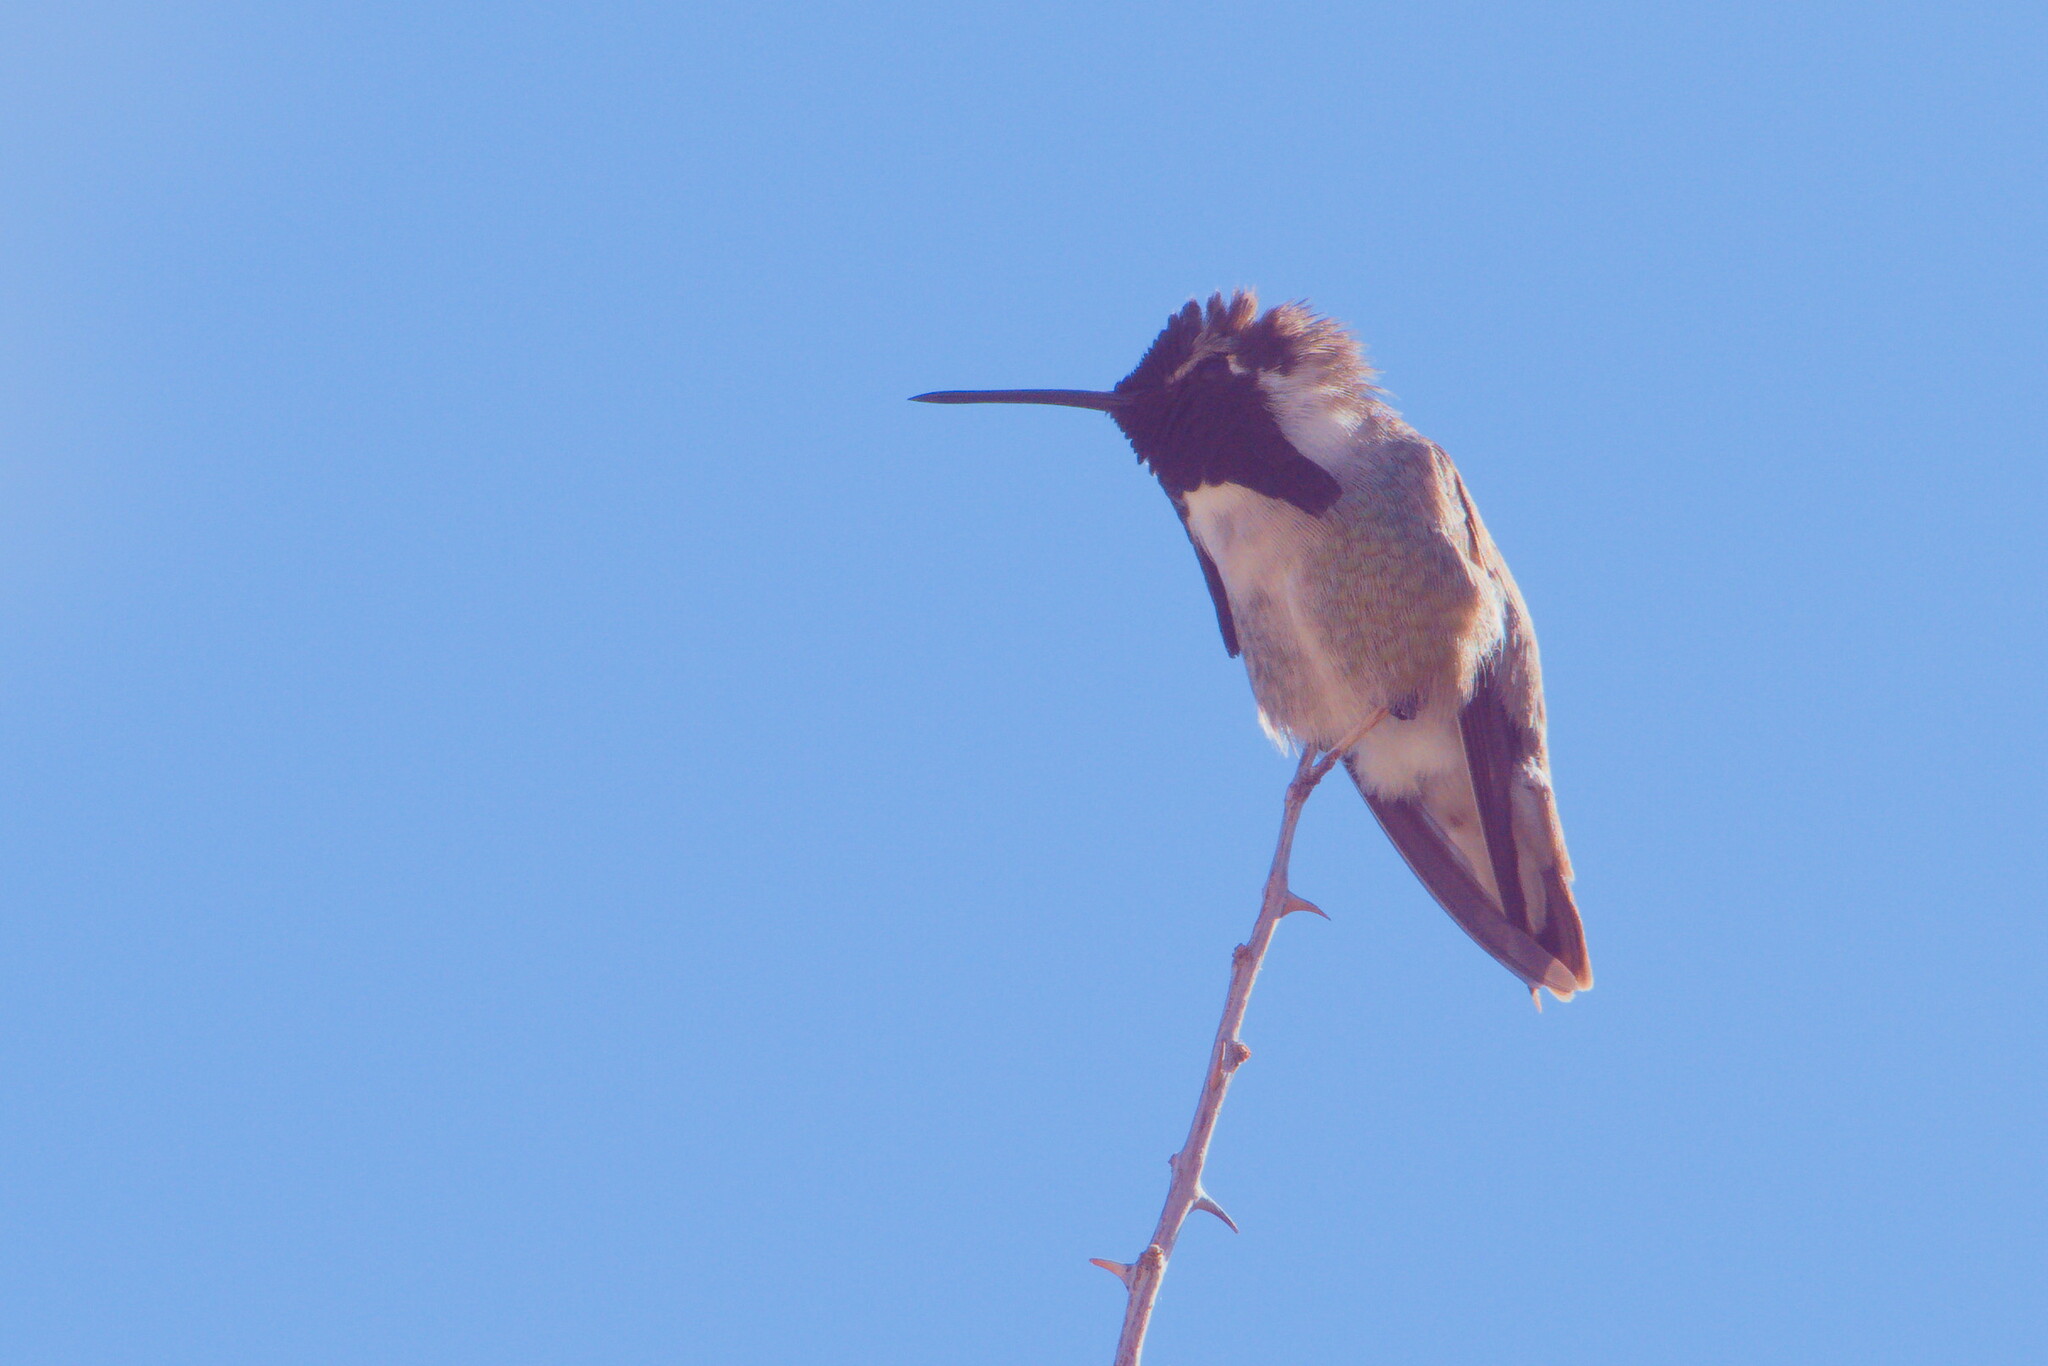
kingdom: Animalia
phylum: Chordata
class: Aves
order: Apodiformes
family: Trochilidae
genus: Calypte
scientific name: Calypte costae
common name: Costa's hummingbird
